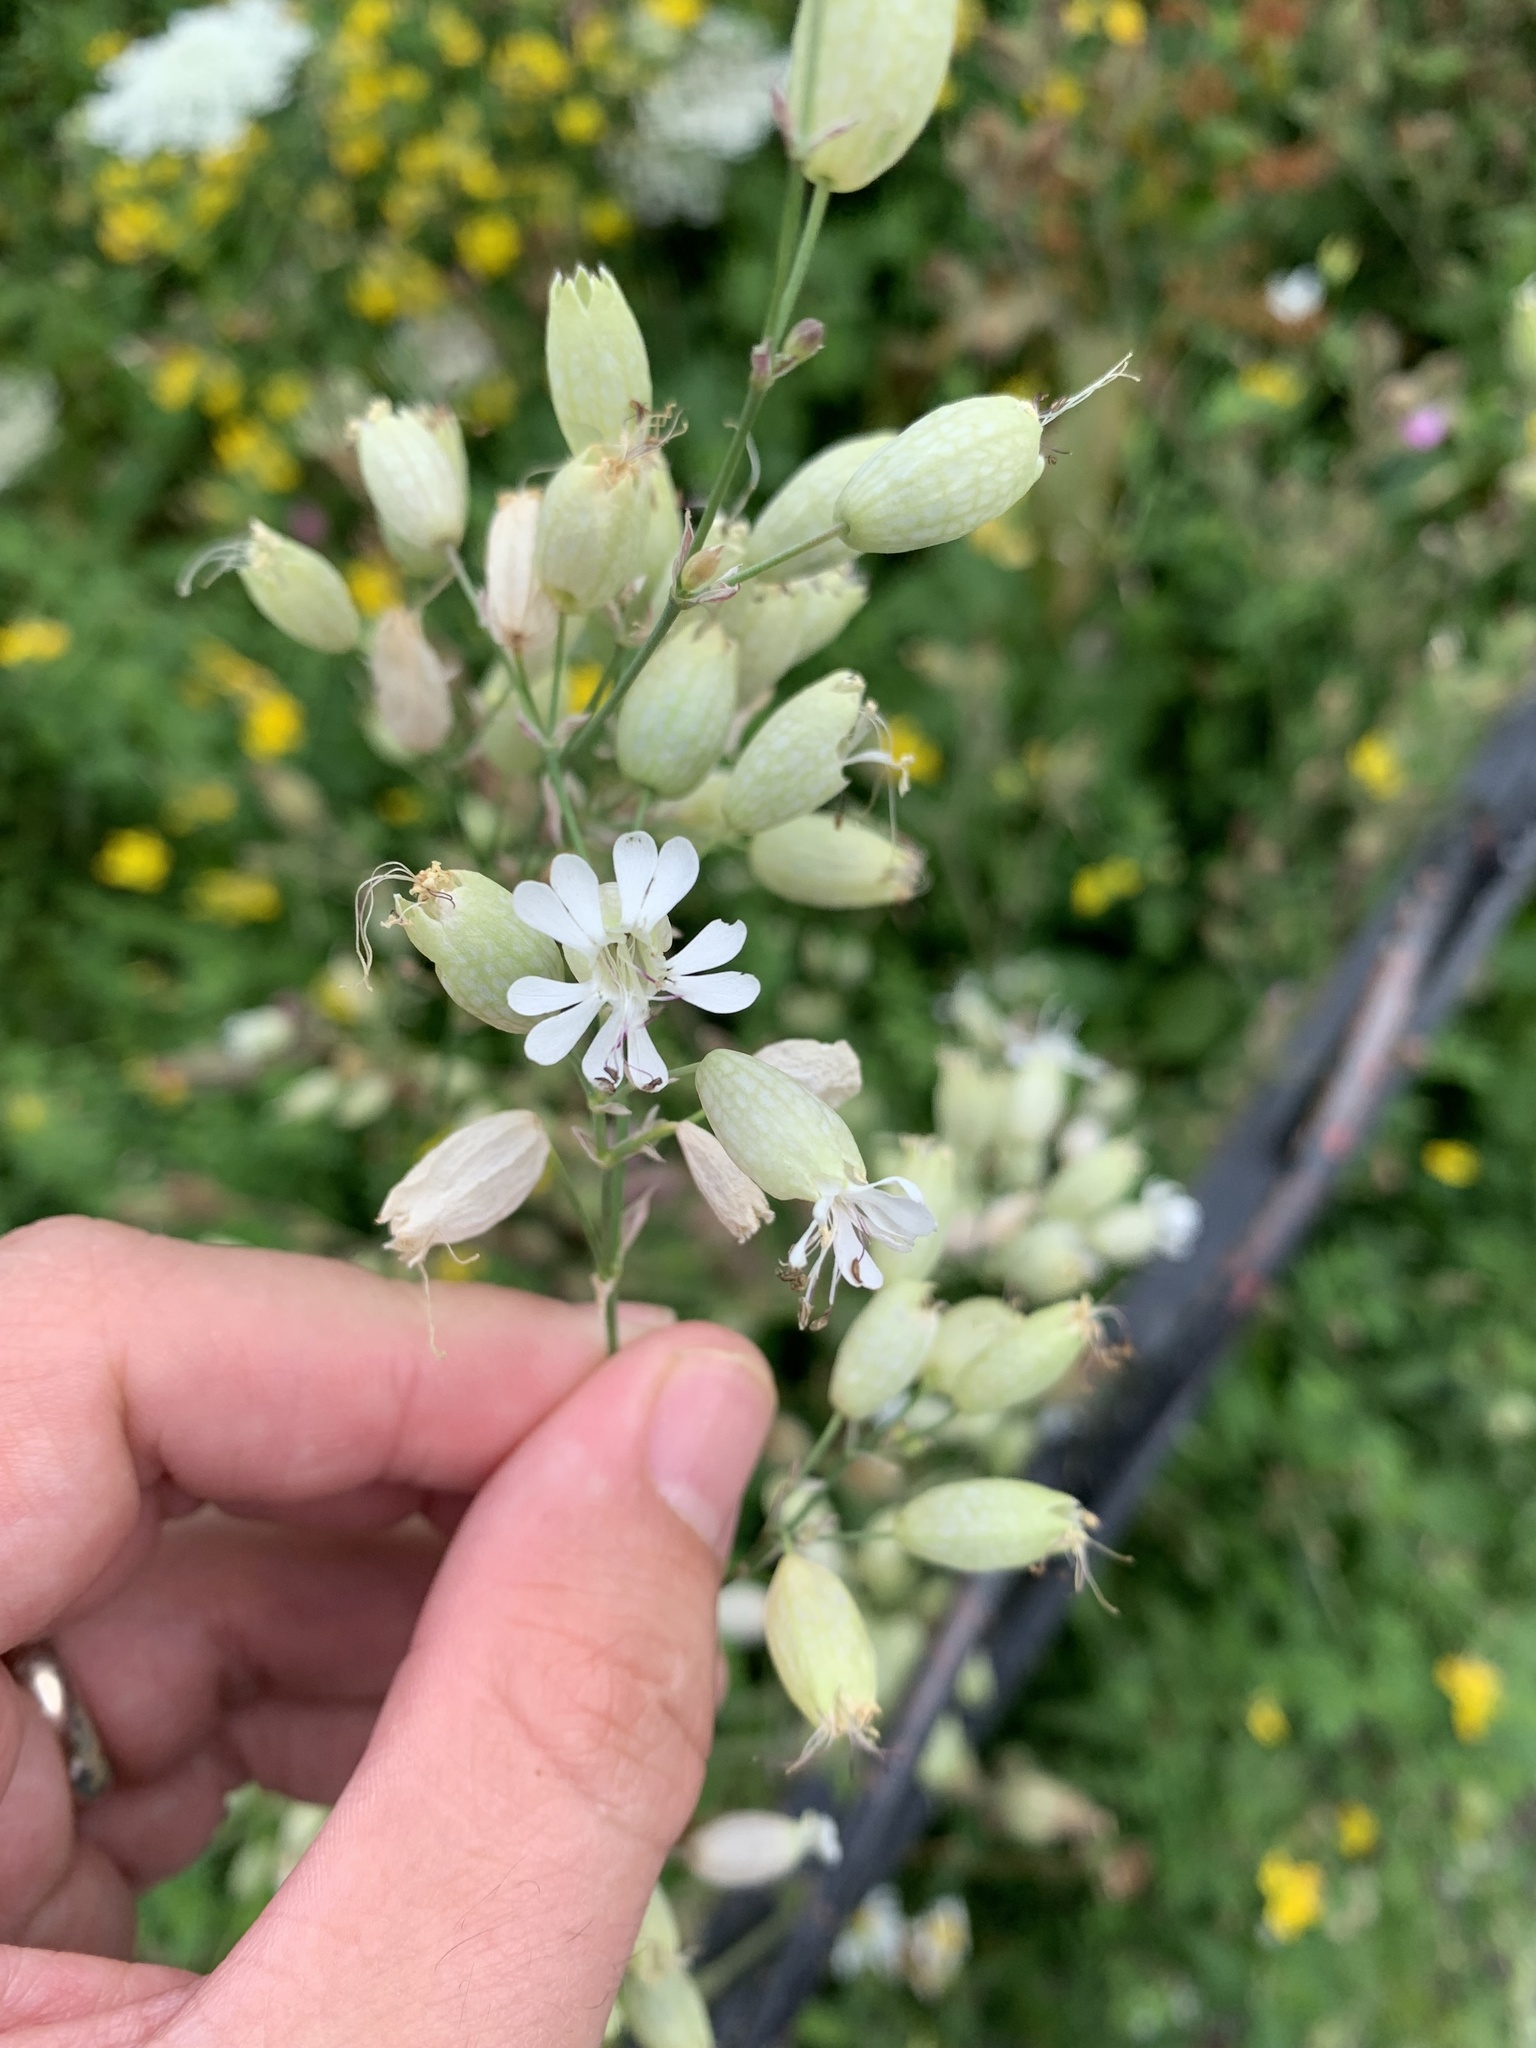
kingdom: Plantae
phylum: Tracheophyta
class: Magnoliopsida
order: Caryophyllales
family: Caryophyllaceae
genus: Silene
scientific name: Silene vulgaris
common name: Bladder campion
